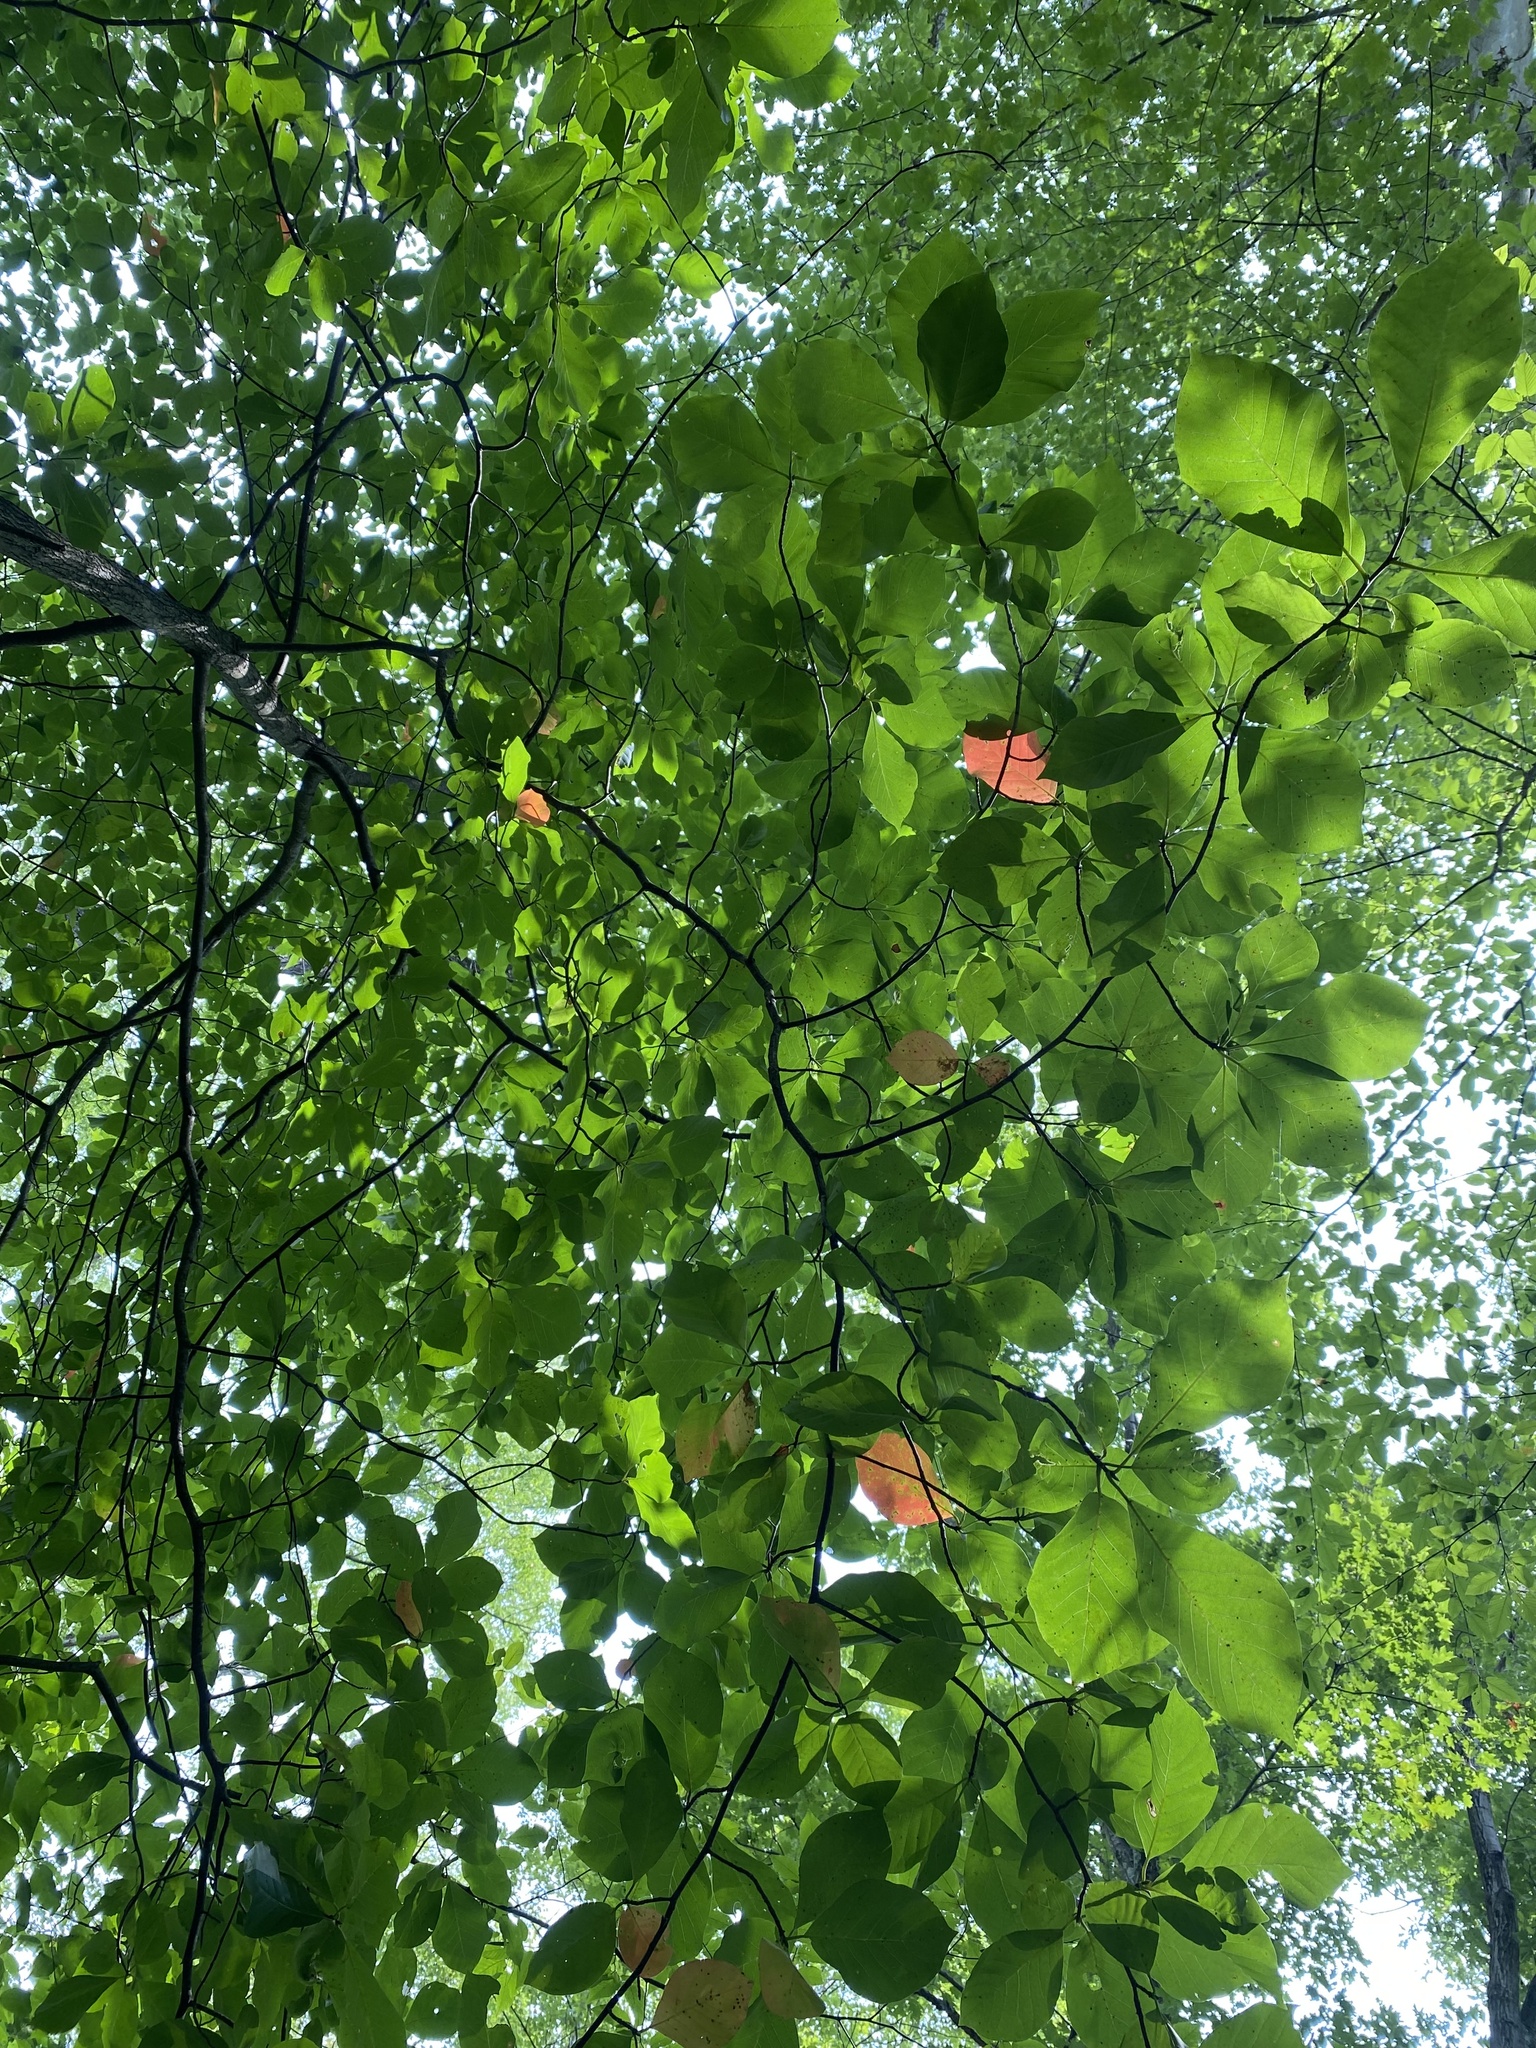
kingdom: Plantae
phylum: Tracheophyta
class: Magnoliopsida
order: Cornales
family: Nyssaceae
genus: Nyssa
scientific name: Nyssa sylvatica
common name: Black tupelo
